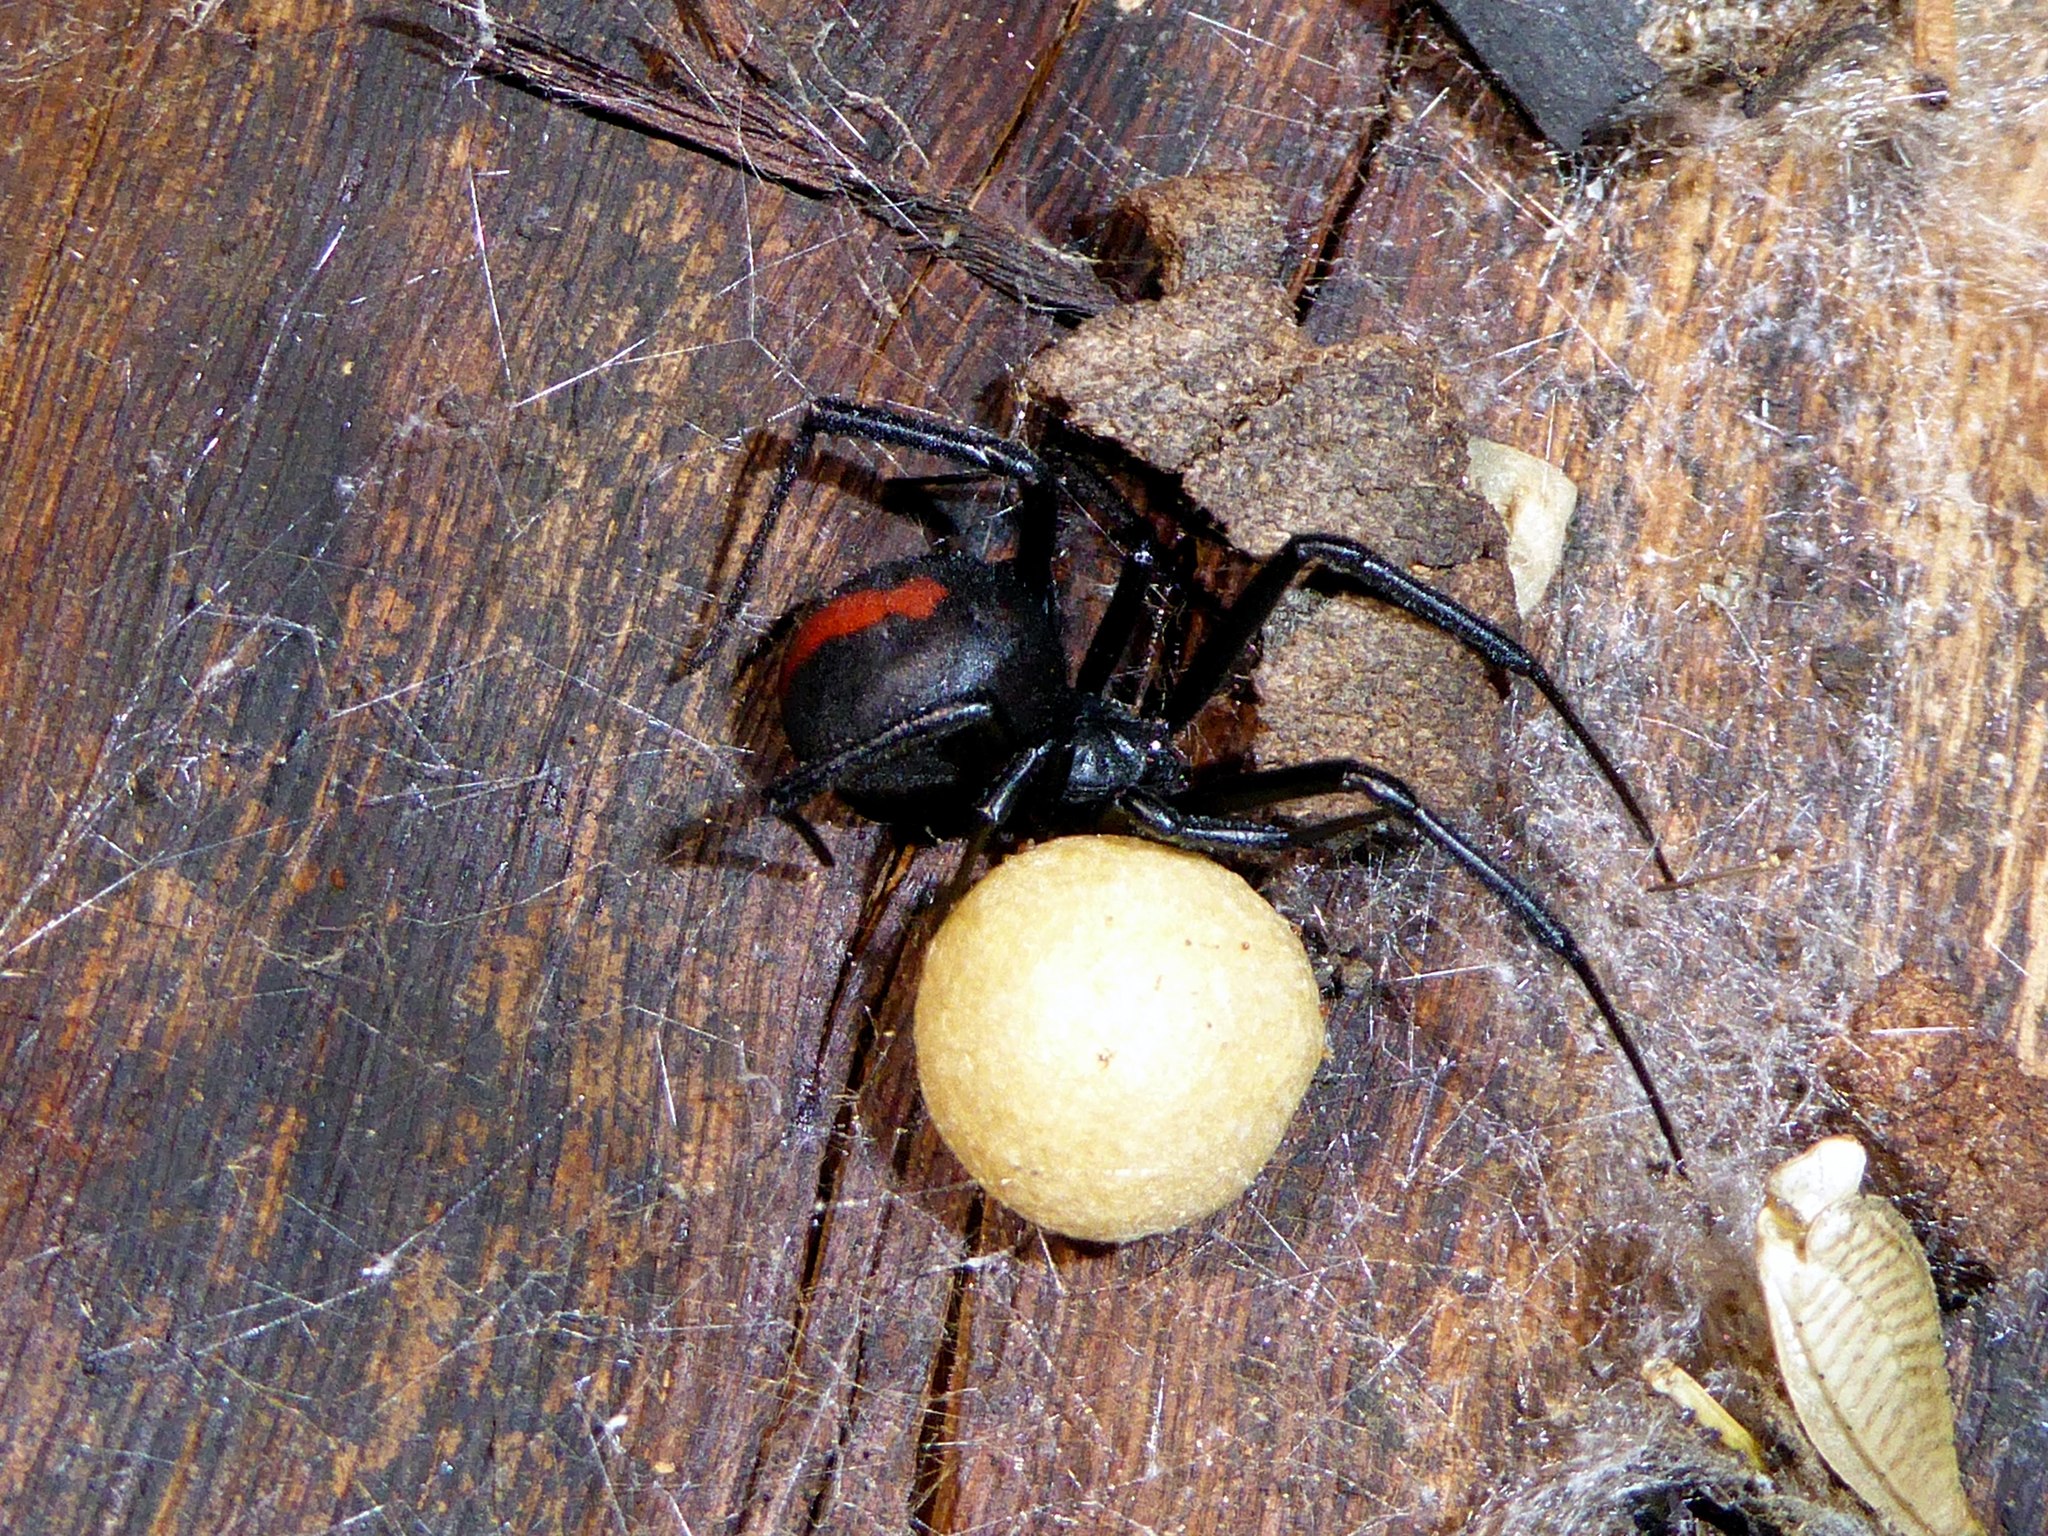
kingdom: Animalia
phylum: Arthropoda
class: Arachnida
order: Araneae
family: Theridiidae
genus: Latrodectus
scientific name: Latrodectus hasselti
